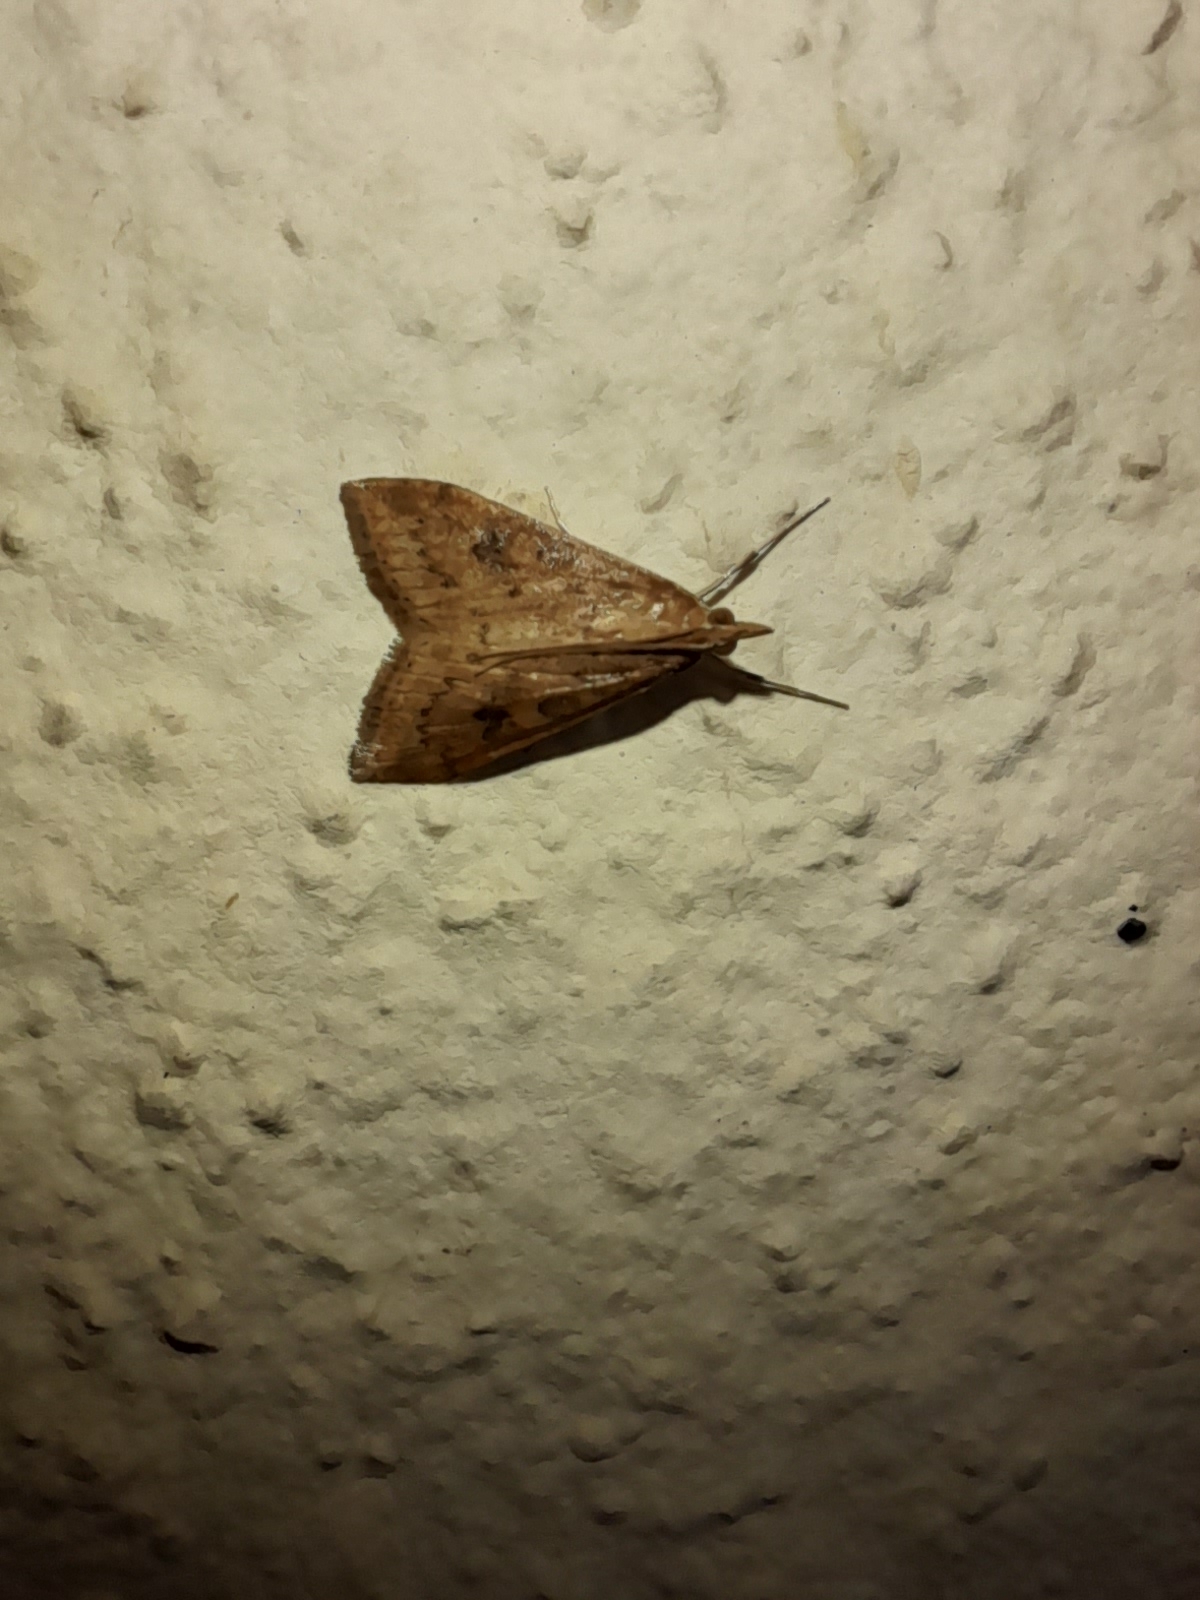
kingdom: Animalia
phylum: Arthropoda
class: Insecta
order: Lepidoptera
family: Crambidae
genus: Udea
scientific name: Udea ferrugalis
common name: Rusty dot
